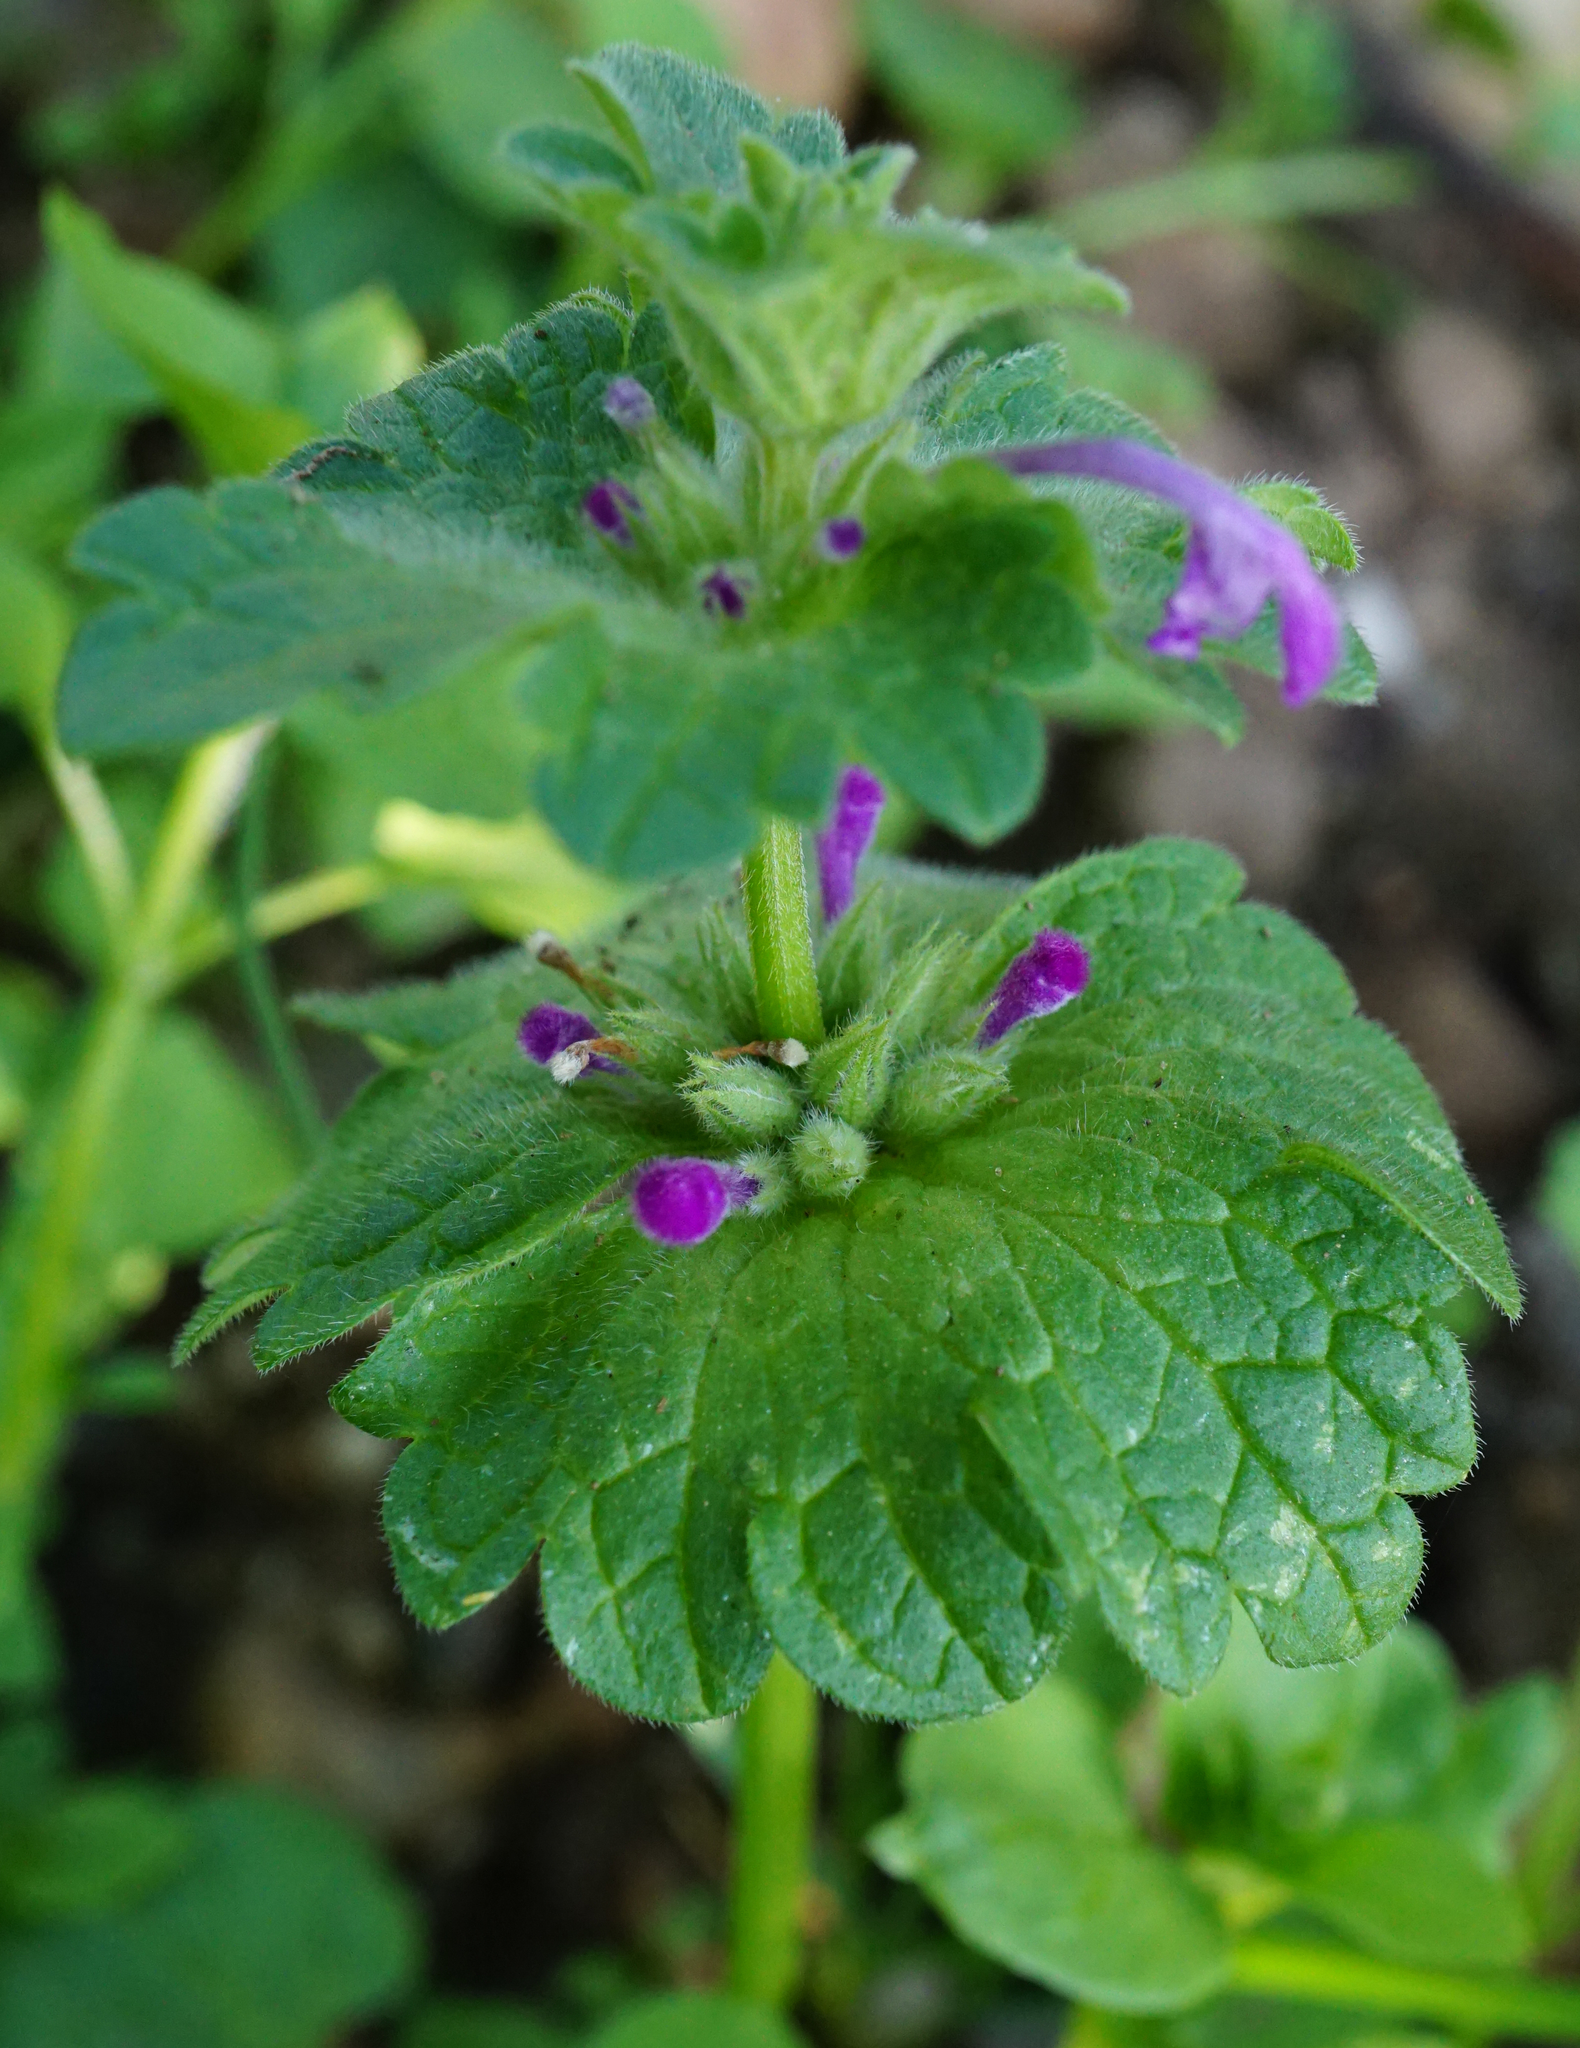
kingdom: Plantae
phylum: Tracheophyta
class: Magnoliopsida
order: Lamiales
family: Lamiaceae
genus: Lamium
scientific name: Lamium amplexicaule
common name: Henbit dead-nettle
